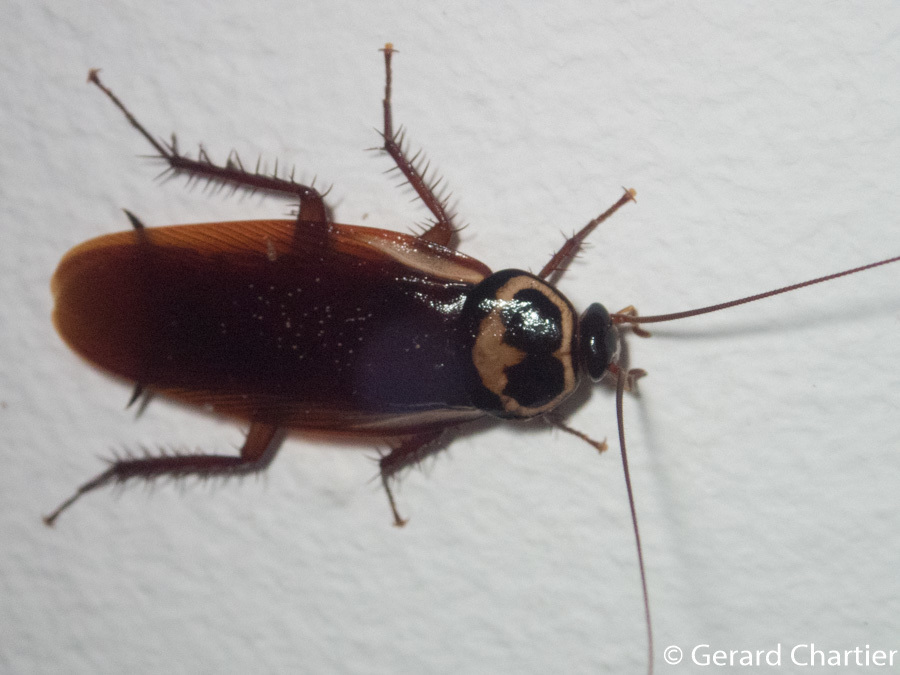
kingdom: Animalia
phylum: Arthropoda
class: Insecta
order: Blattodea
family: Blattidae
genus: Periplaneta
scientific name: Periplaneta australasiae
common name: Australian cockroach
